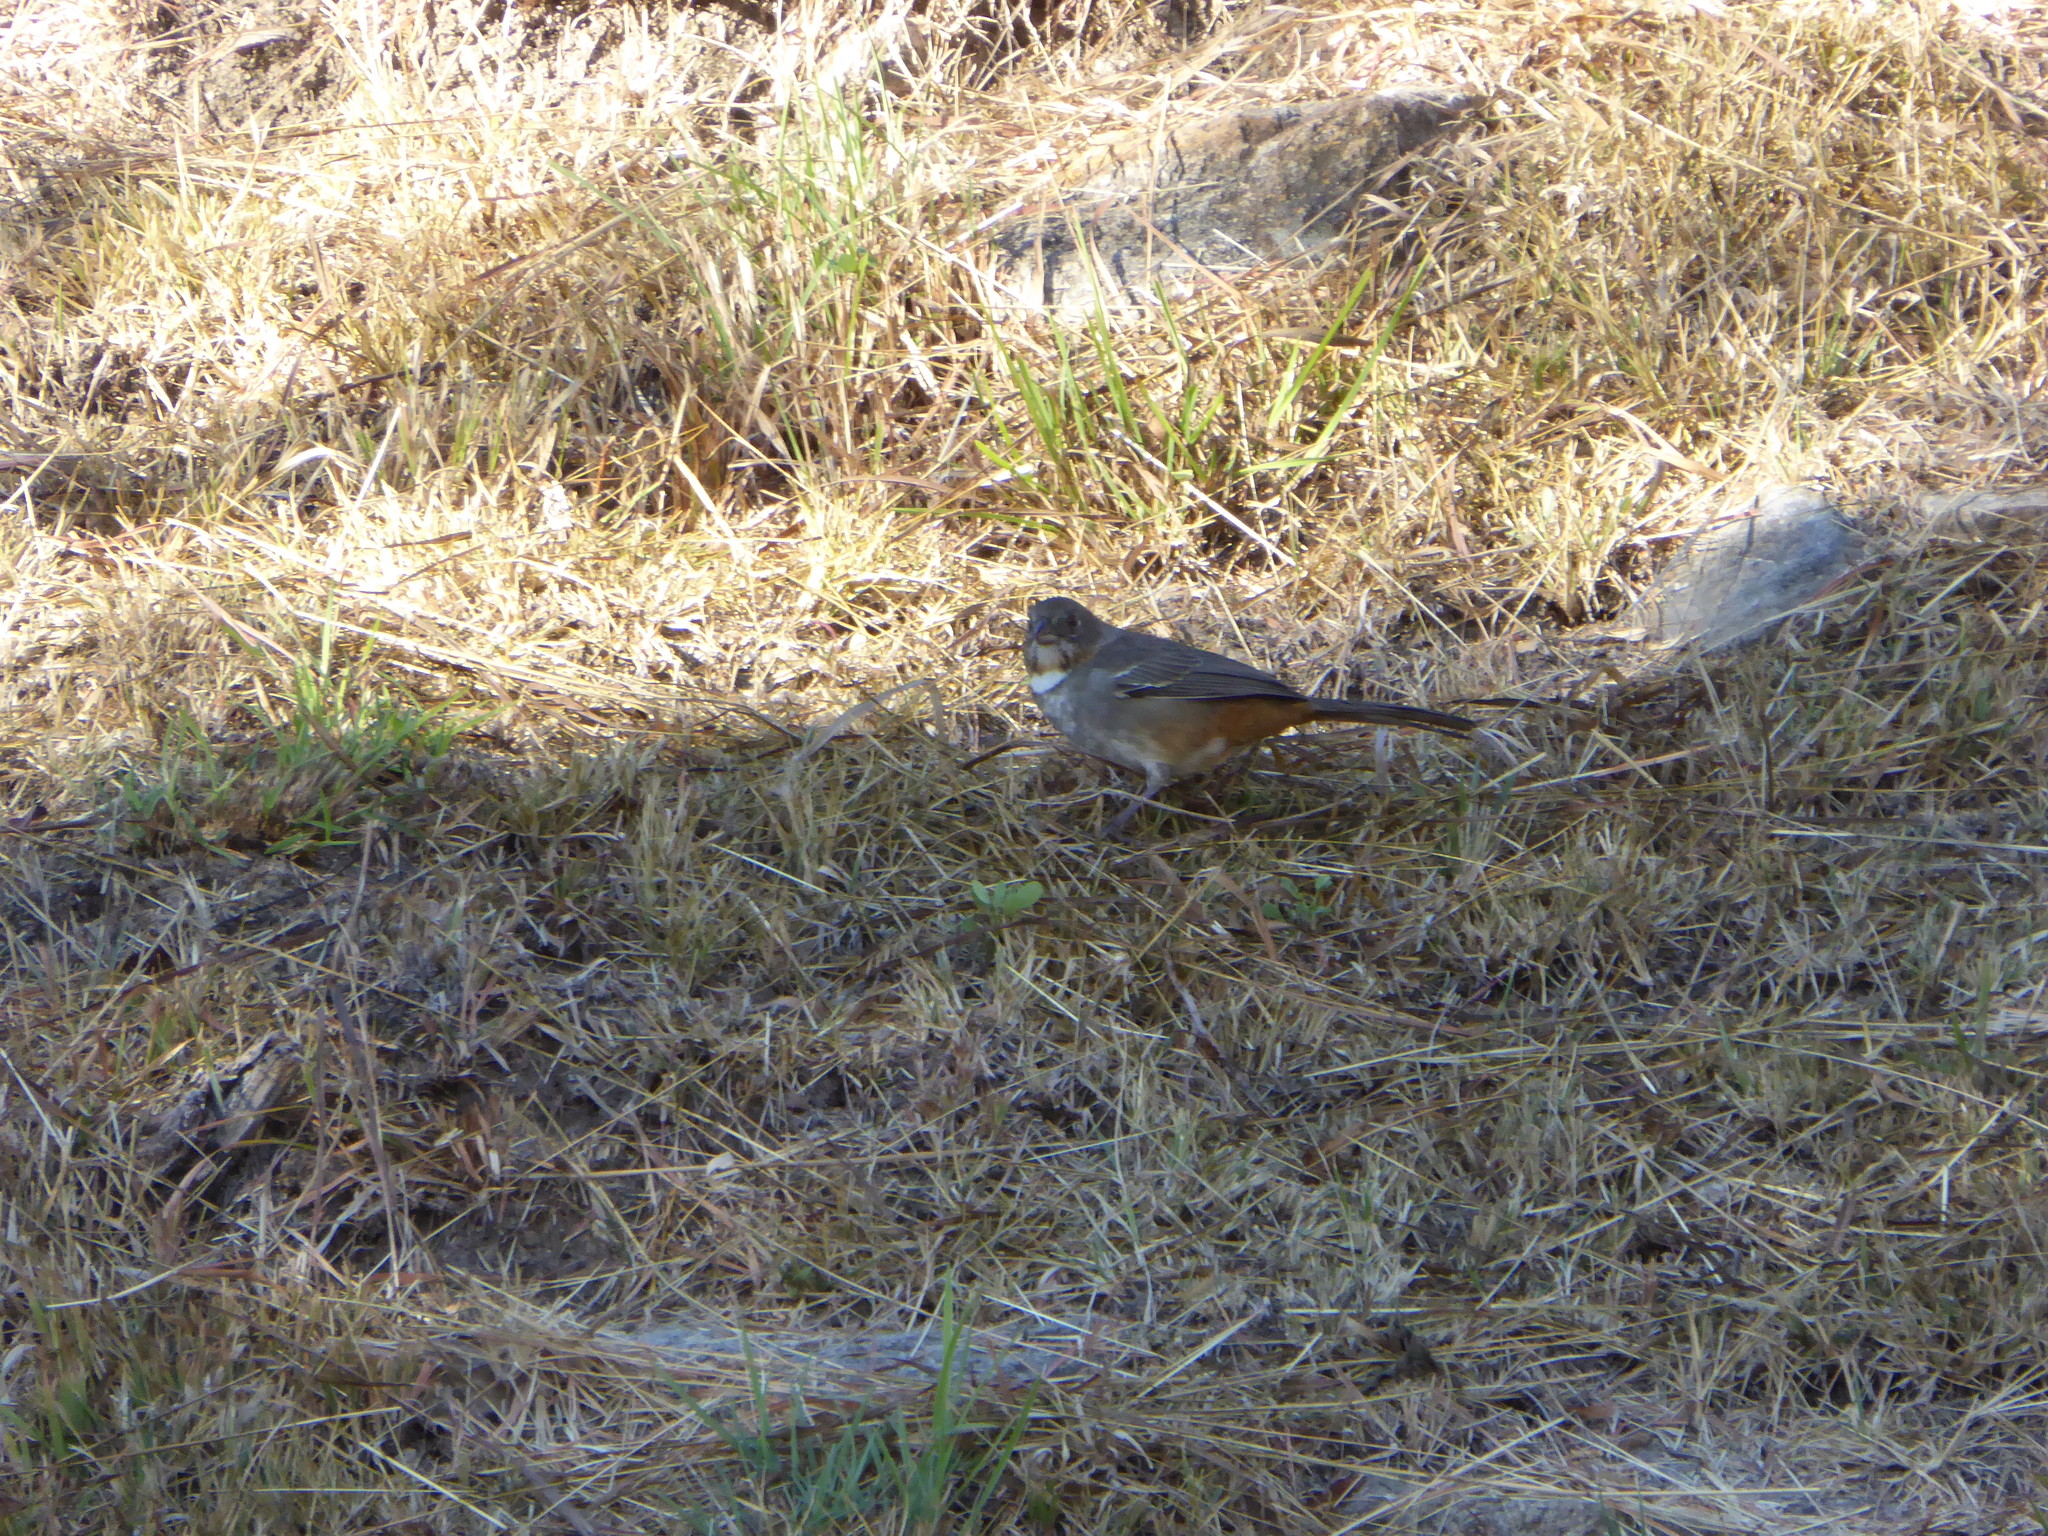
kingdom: Animalia
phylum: Chordata
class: Aves
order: Passeriformes
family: Passerellidae
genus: Melozone
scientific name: Melozone albicollis
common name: White-throated towhee
